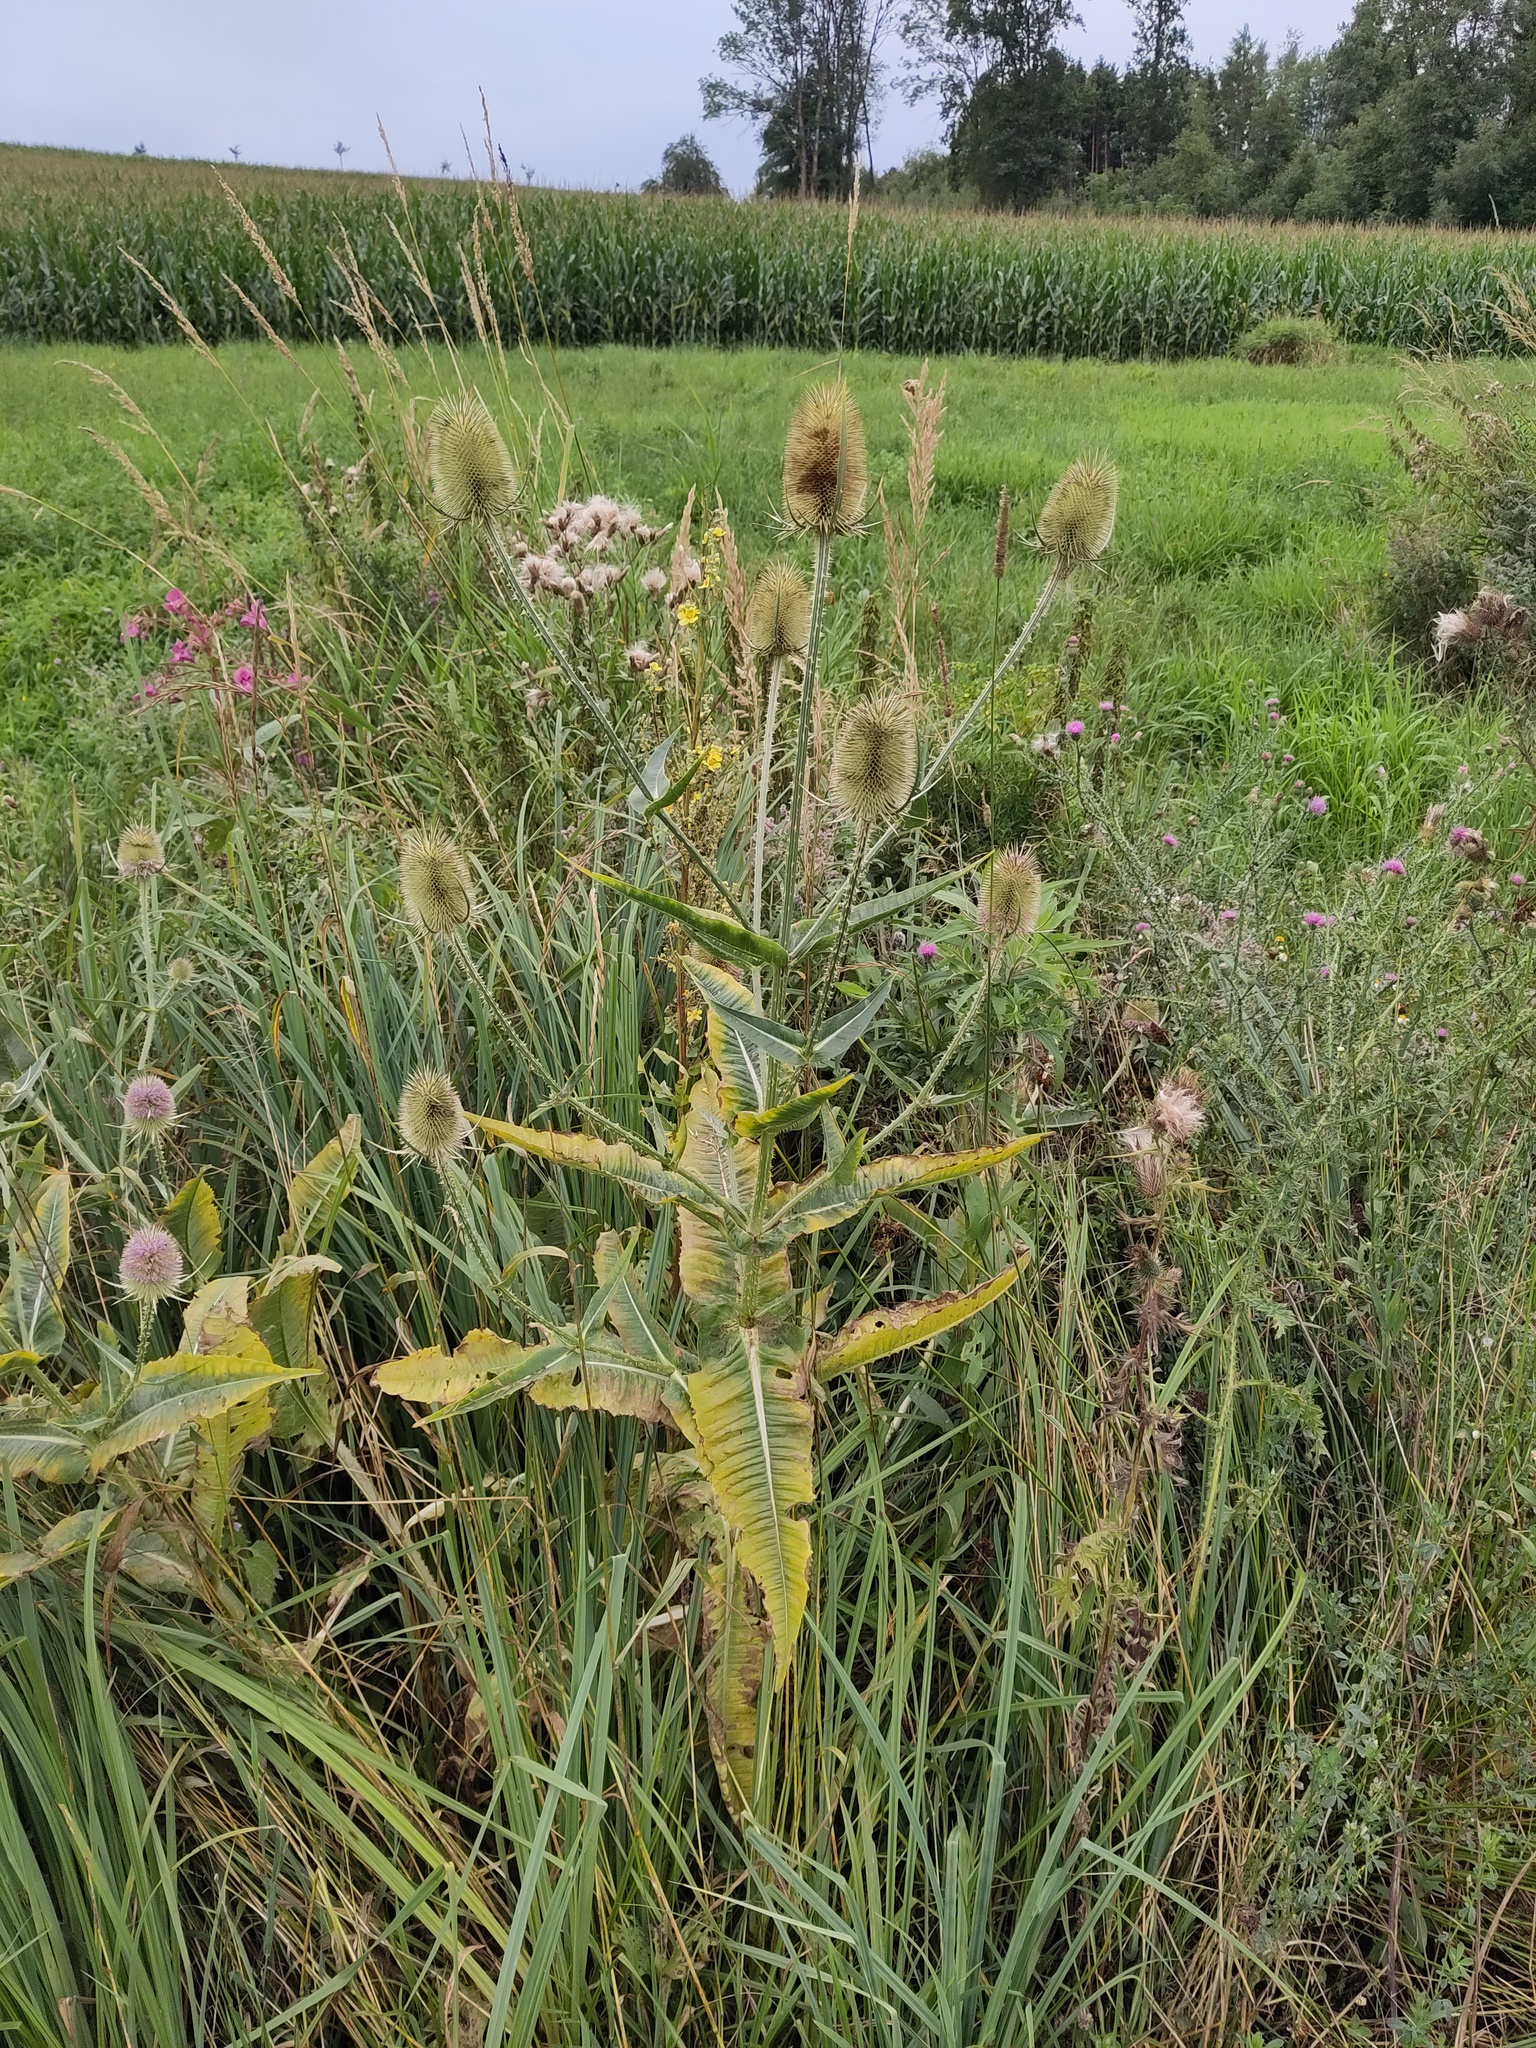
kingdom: Plantae
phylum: Tracheophyta
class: Magnoliopsida
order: Dipsacales
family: Caprifoliaceae
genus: Dipsacus
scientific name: Dipsacus fullonum
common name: Teasel
